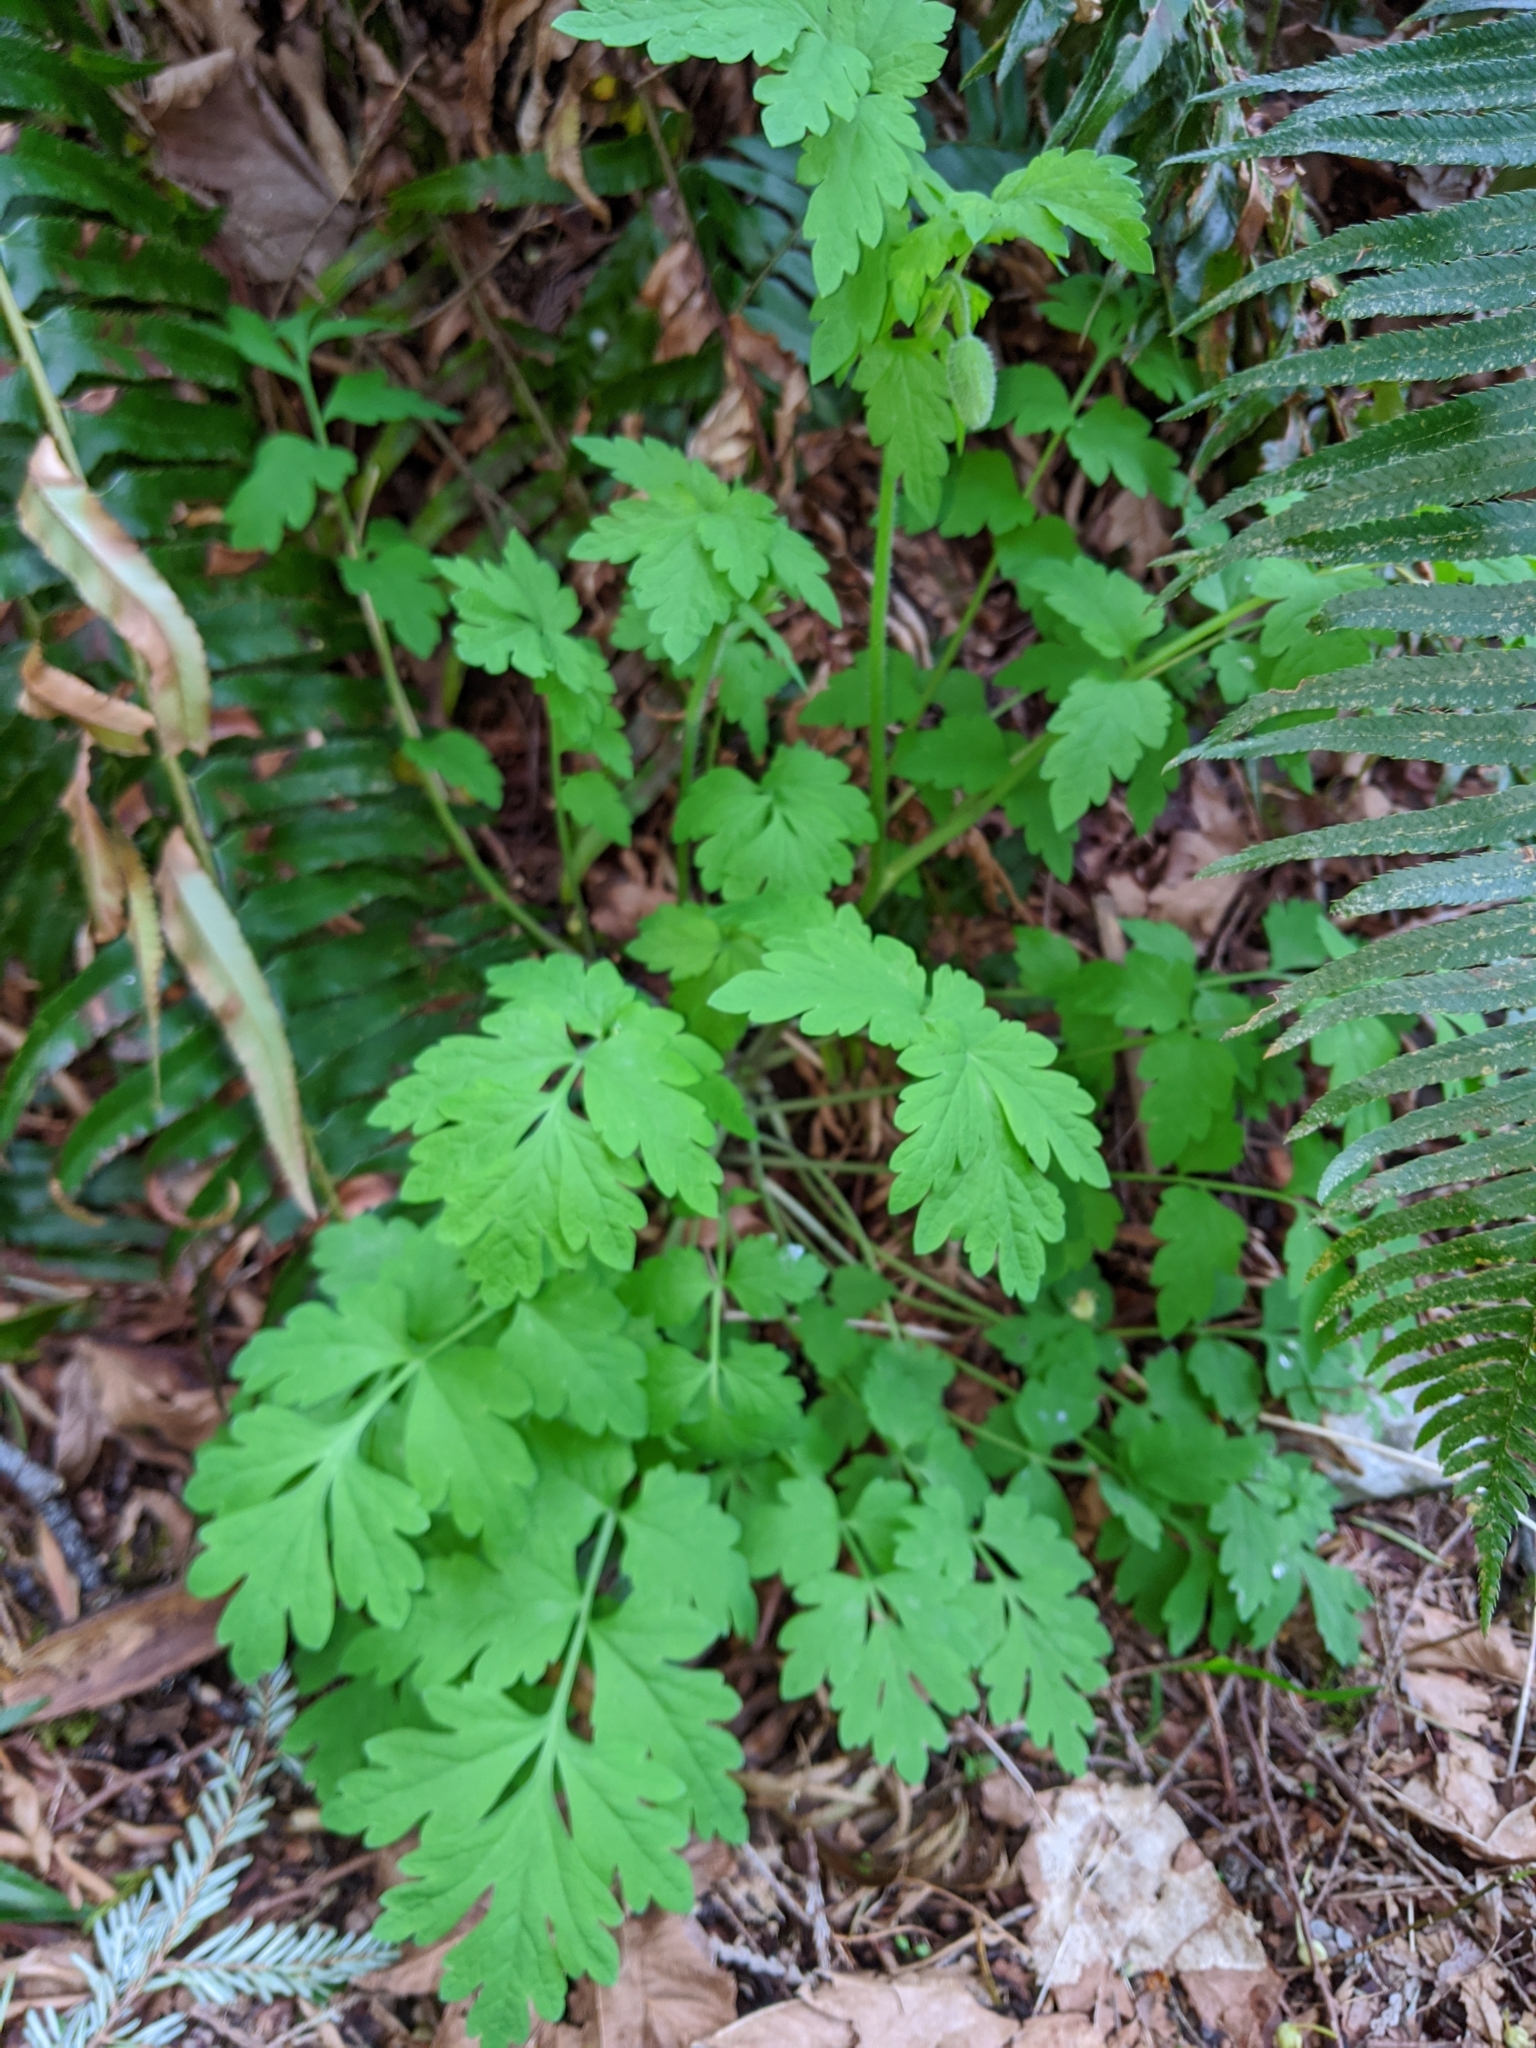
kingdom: Plantae
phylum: Tracheophyta
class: Magnoliopsida
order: Ranunculales
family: Papaveraceae
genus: Papaver
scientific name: Papaver cambricum
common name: Poppy
